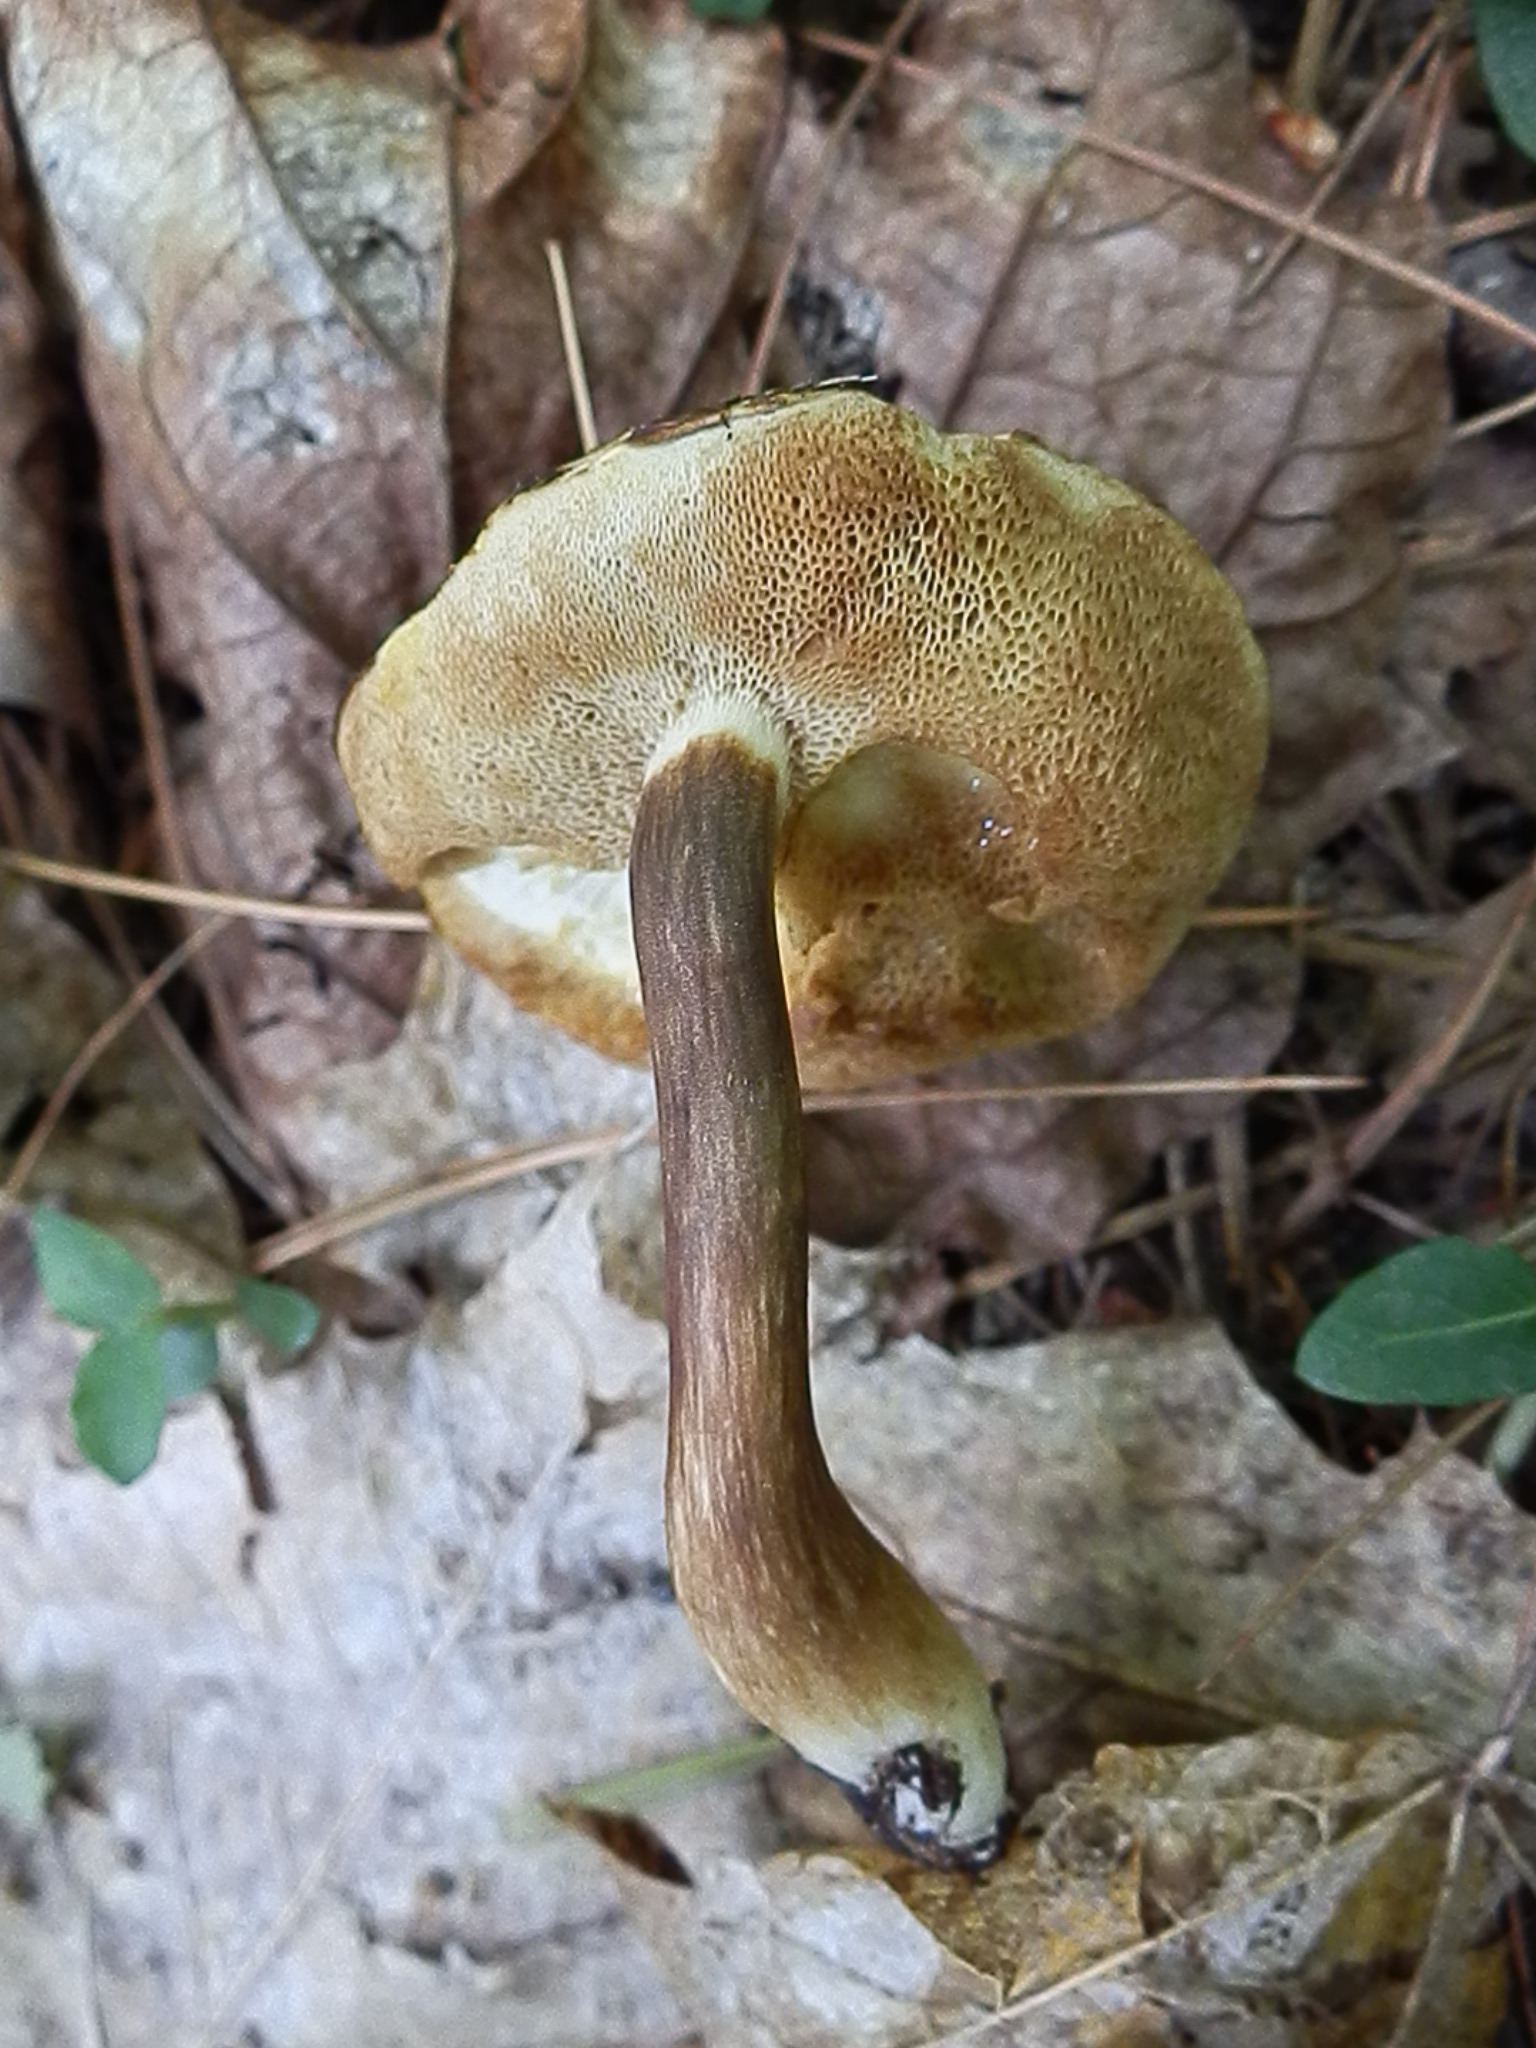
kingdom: Fungi
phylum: Basidiomycota
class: Agaricomycetes
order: Boletales
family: Boletaceae
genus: Xanthoconium
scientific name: Xanthoconium affine
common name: Spotted bolete
